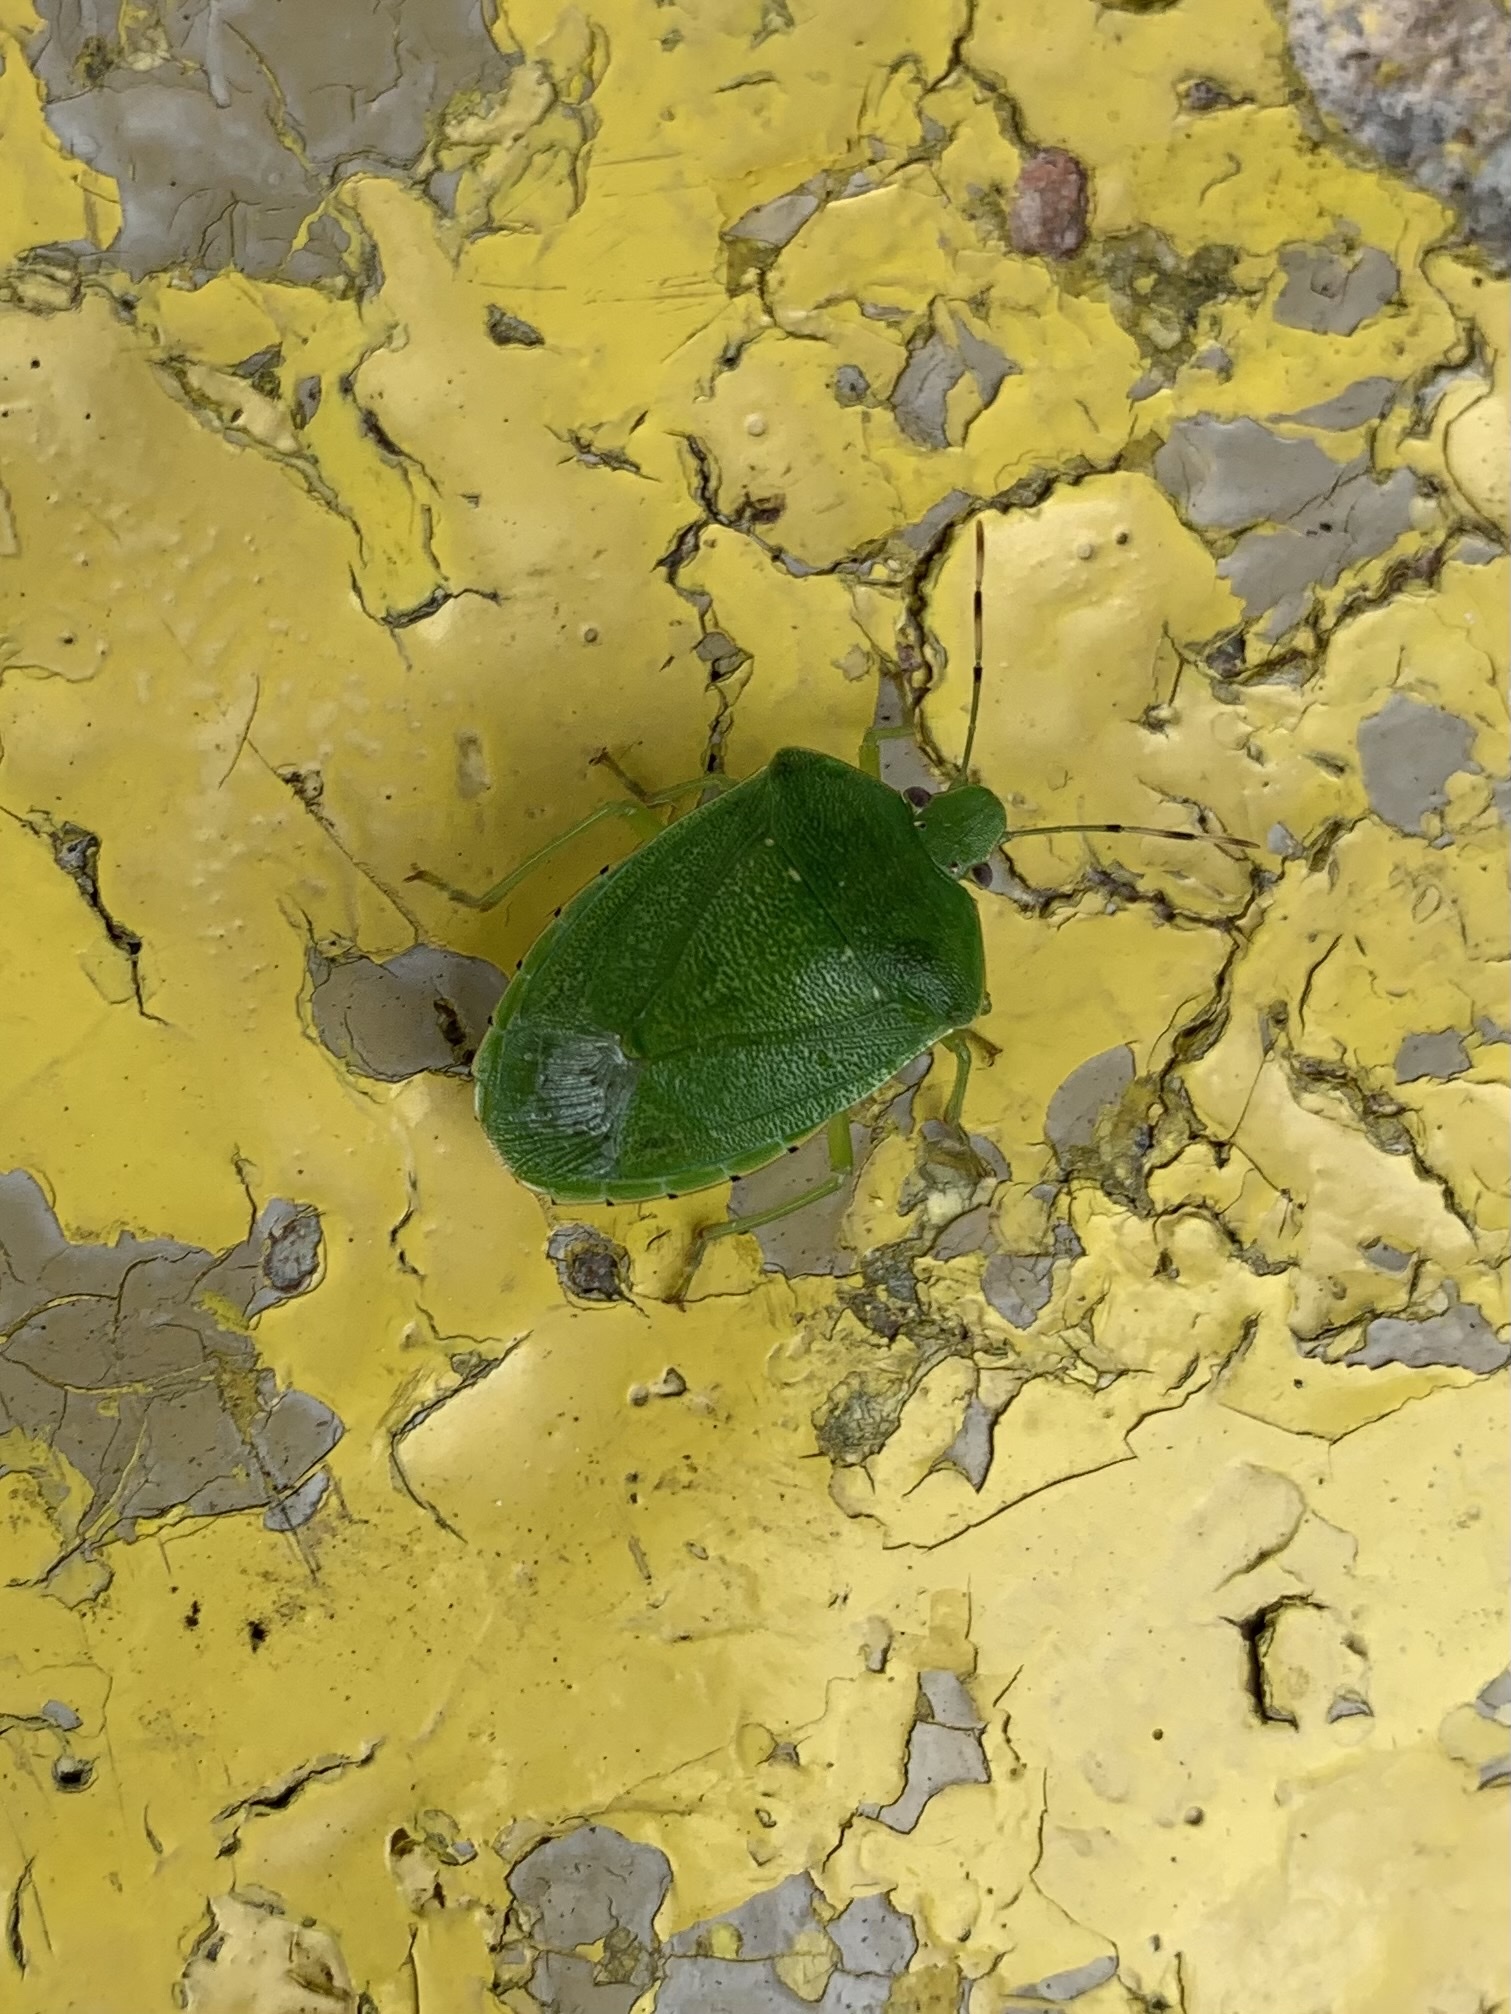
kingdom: Animalia
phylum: Arthropoda
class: Insecta
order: Hemiptera
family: Pentatomidae
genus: Chinavia
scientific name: Chinavia hilaris
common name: Green stink bug
